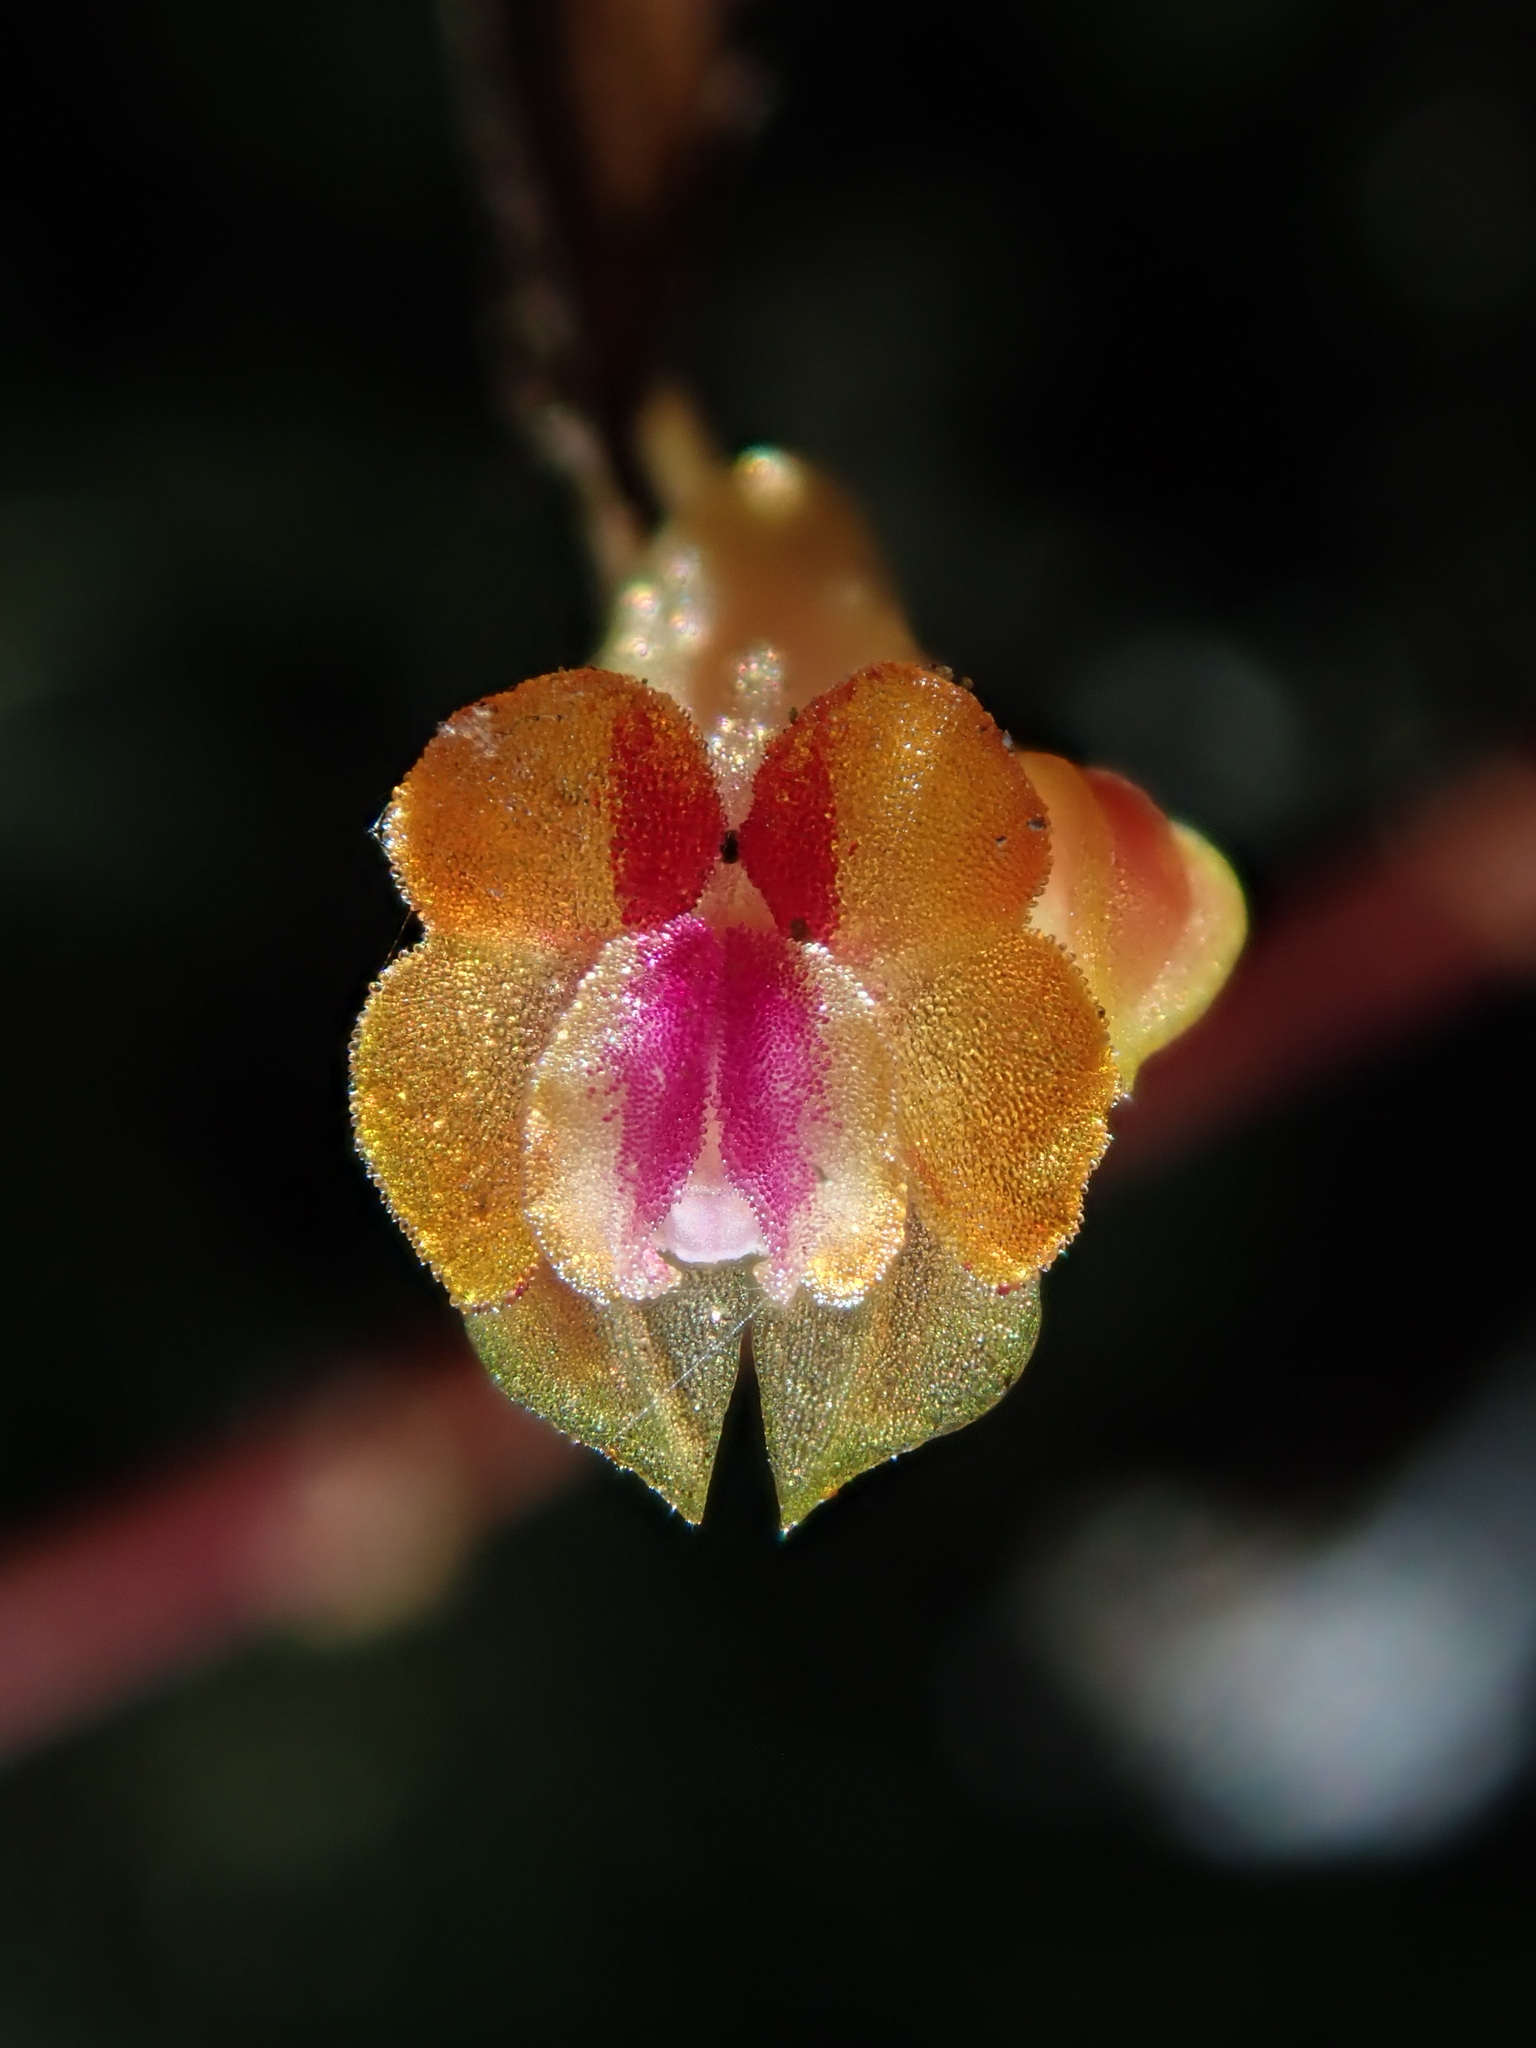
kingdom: Plantae
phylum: Tracheophyta
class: Liliopsida
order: Asparagales
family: Orchidaceae
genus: Lepanthes
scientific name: Lepanthes mariposa
